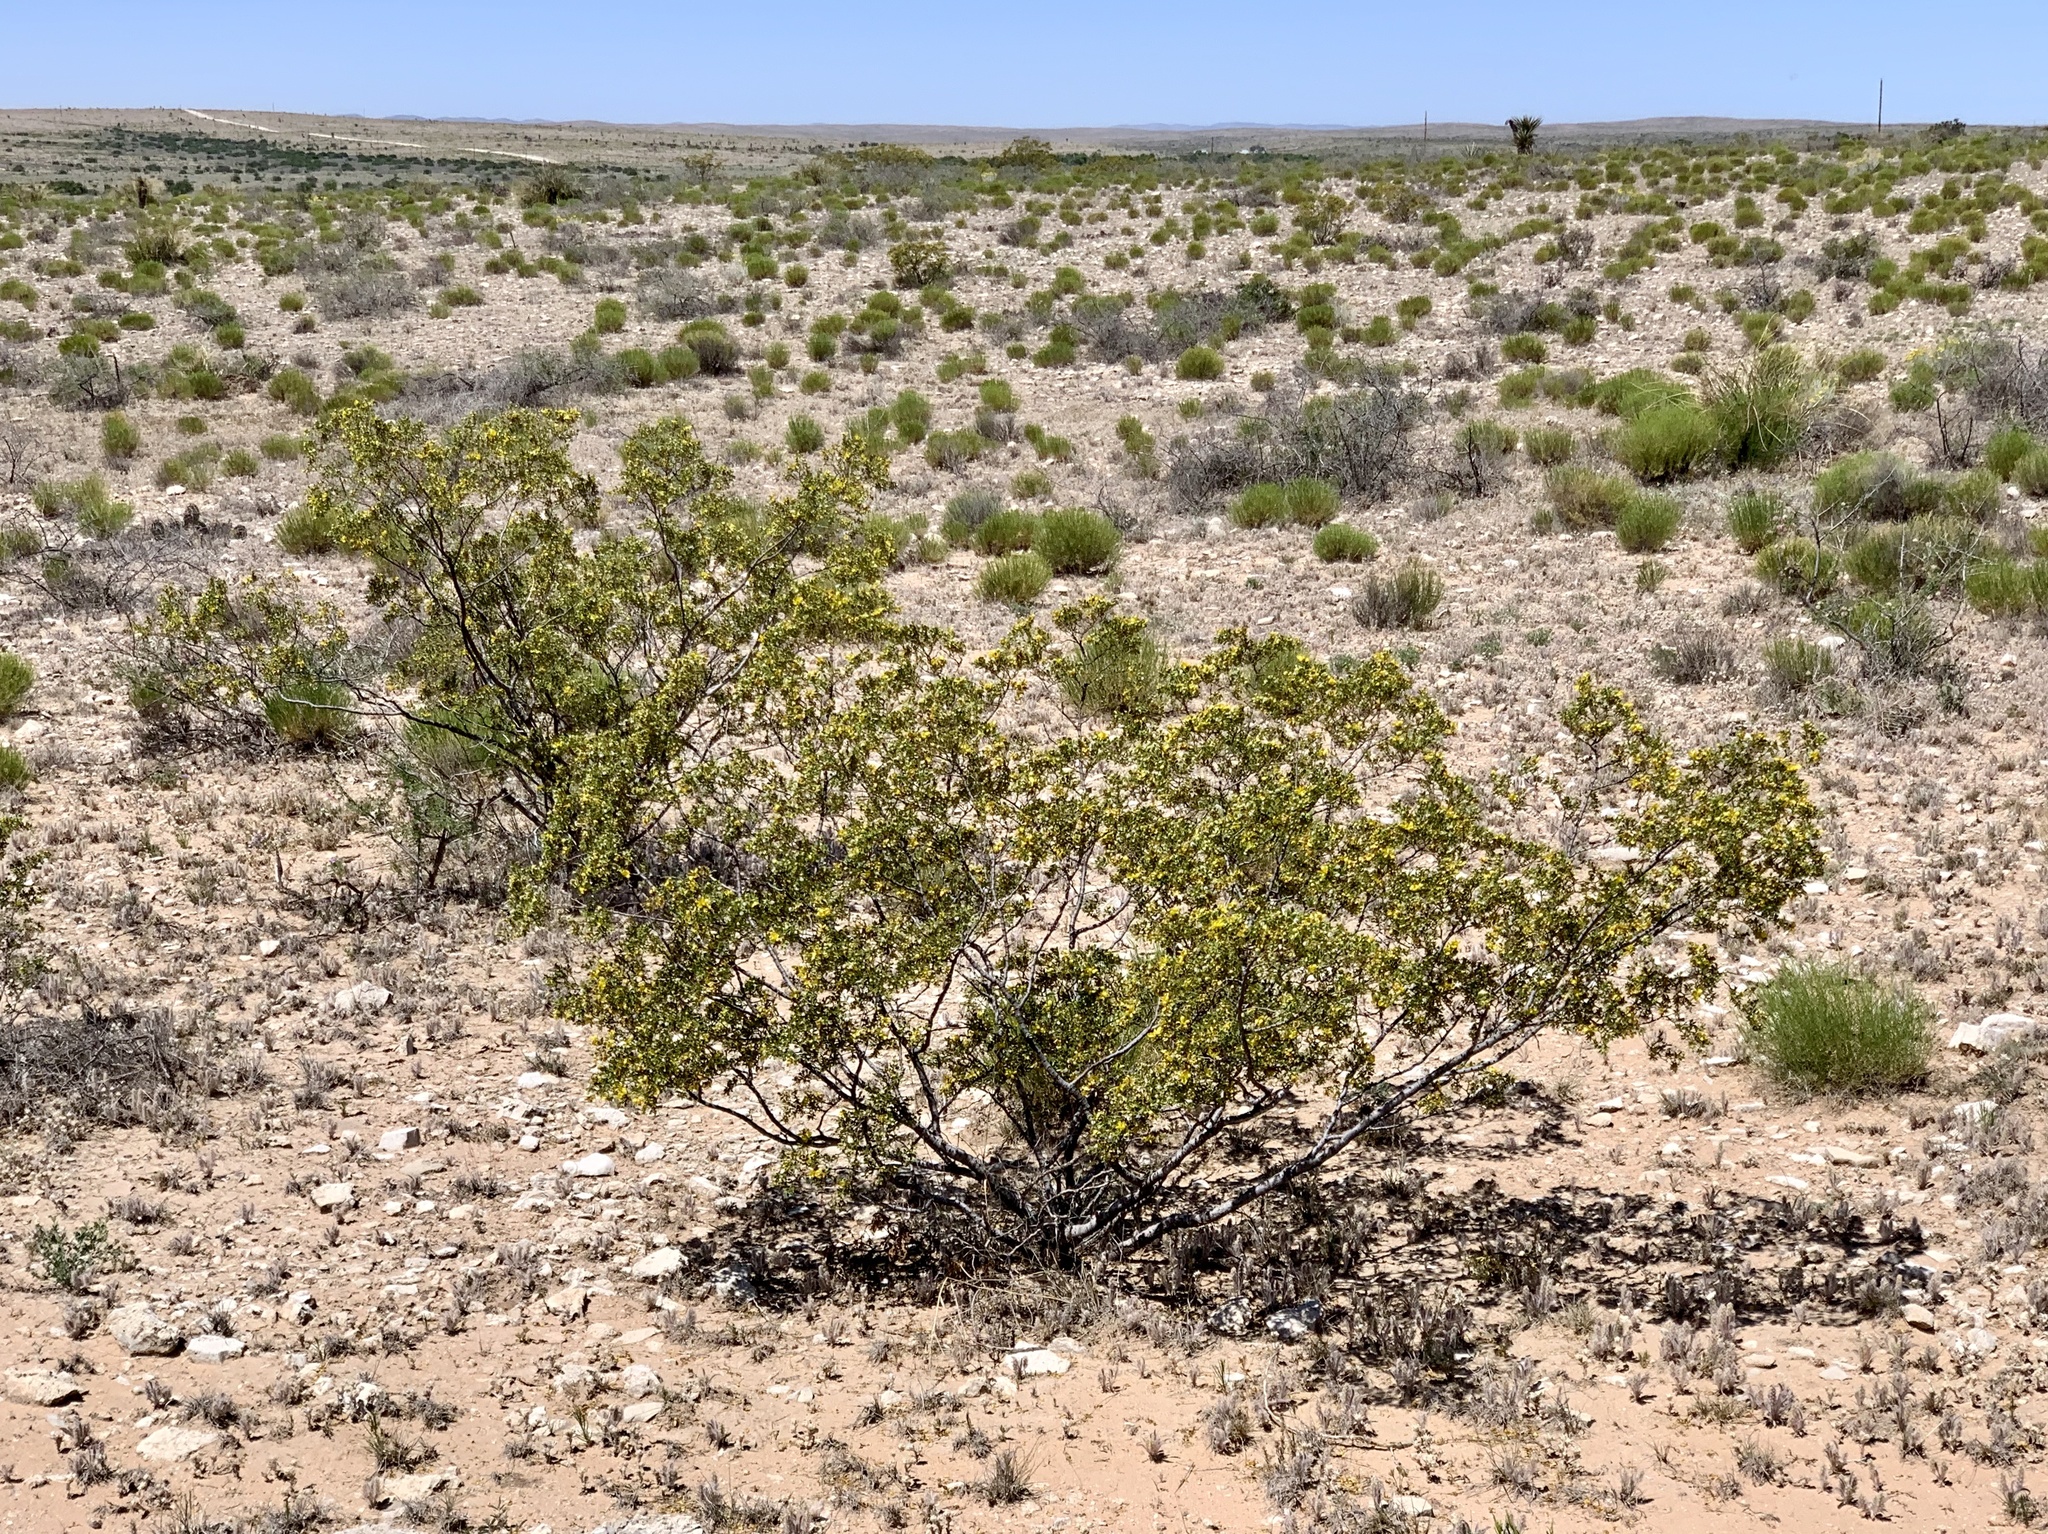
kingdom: Plantae
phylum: Tracheophyta
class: Magnoliopsida
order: Zygophyllales
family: Zygophyllaceae
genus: Larrea
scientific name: Larrea tridentata
